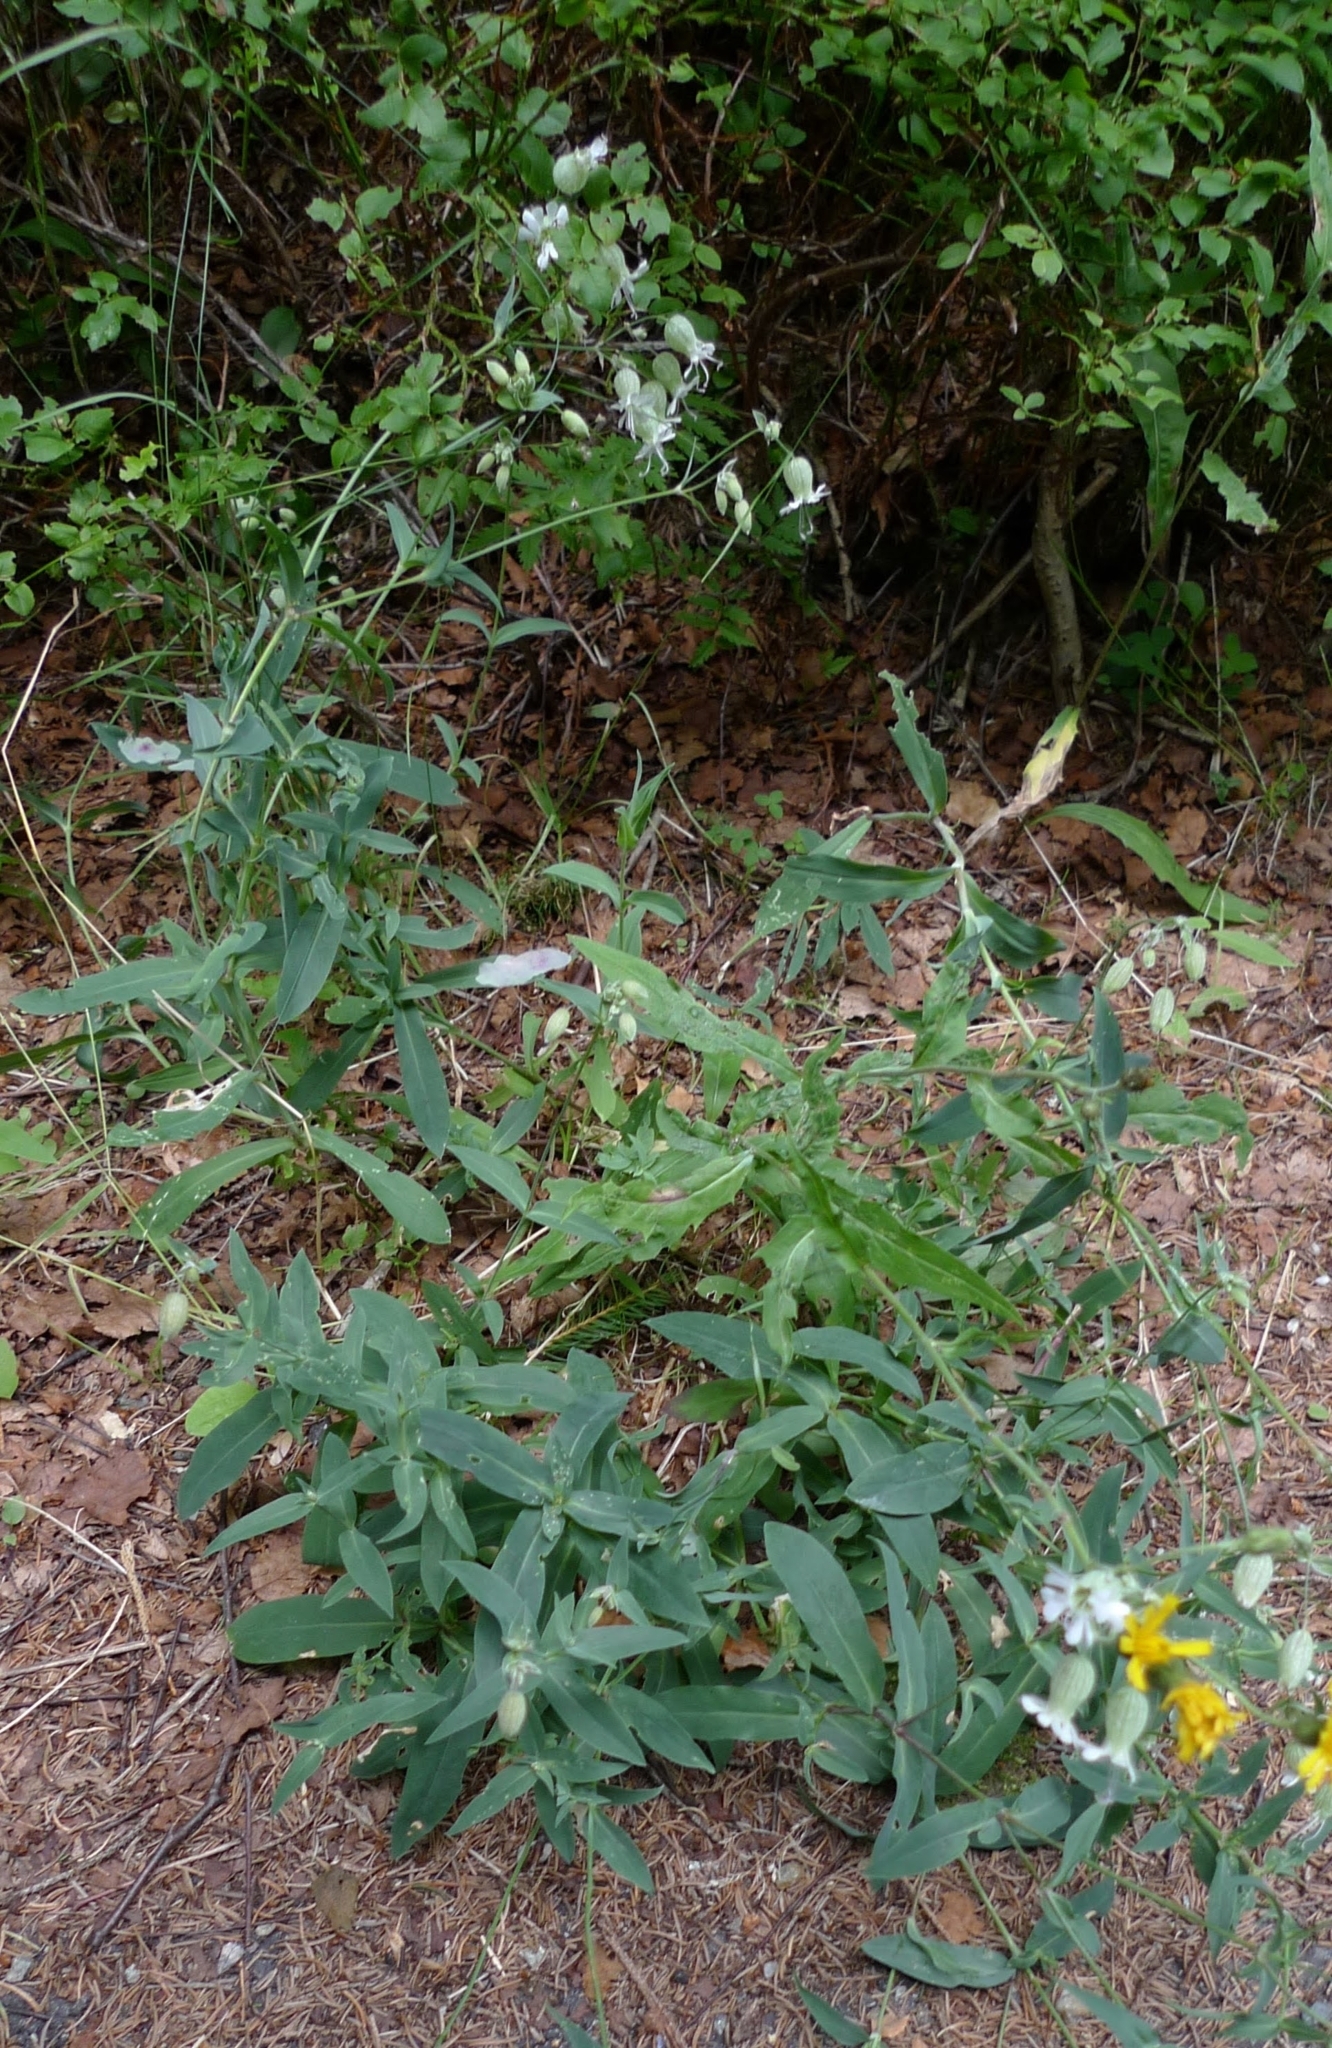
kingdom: Plantae
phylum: Tracheophyta
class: Magnoliopsida
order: Caryophyllales
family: Caryophyllaceae
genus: Silene
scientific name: Silene vulgaris
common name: Bladder campion
